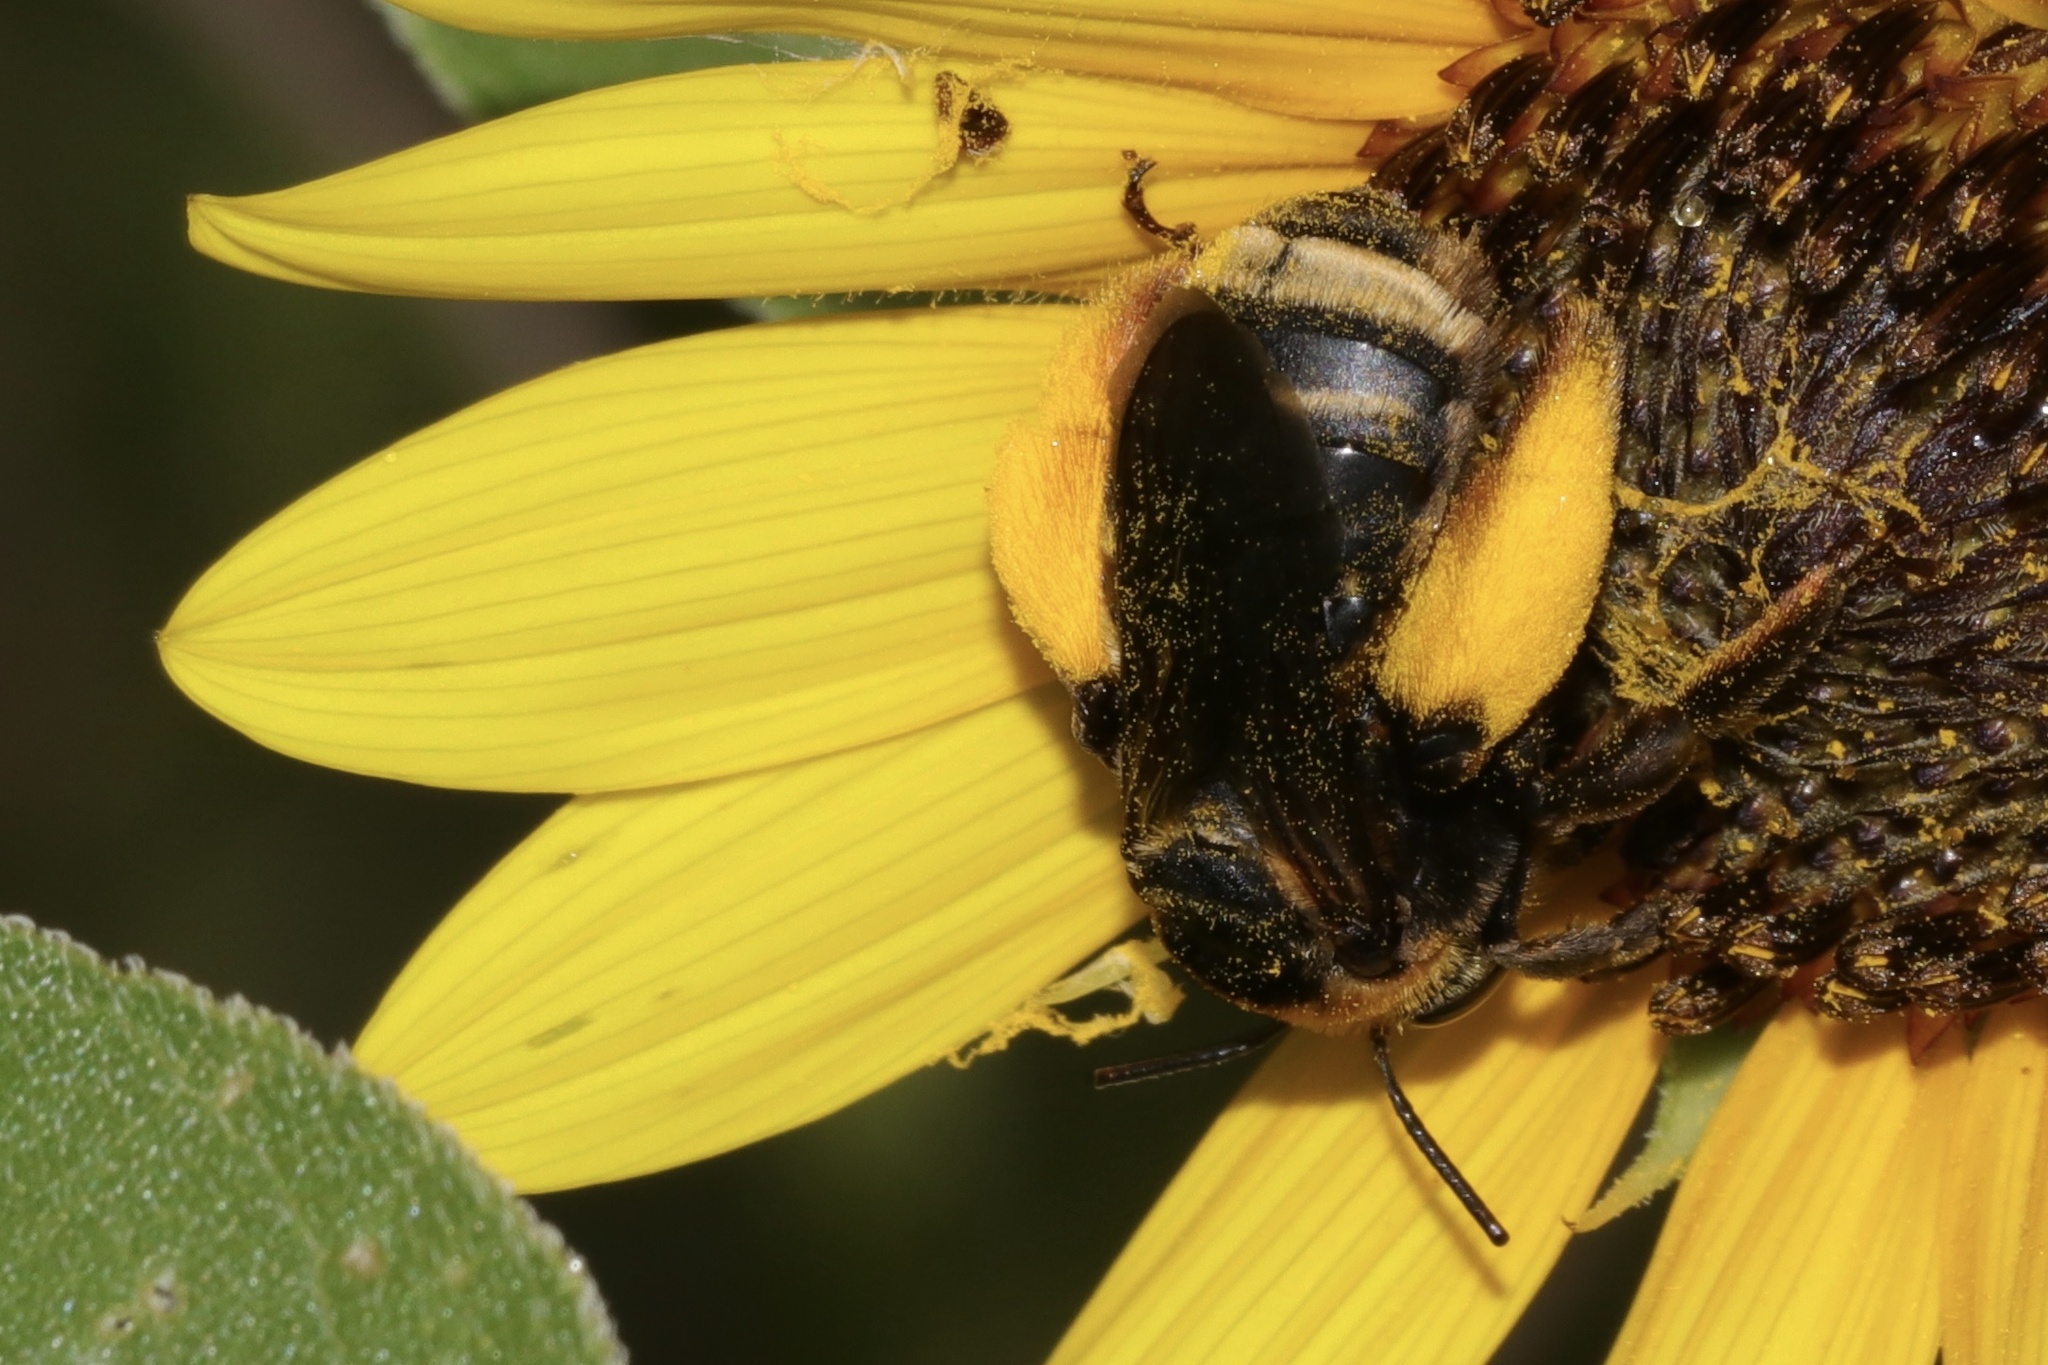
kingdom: Animalia
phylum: Arthropoda
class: Insecta
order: Hymenoptera
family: Apidae
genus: Svastra
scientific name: Svastra obliqua
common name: Oblique longhorn
